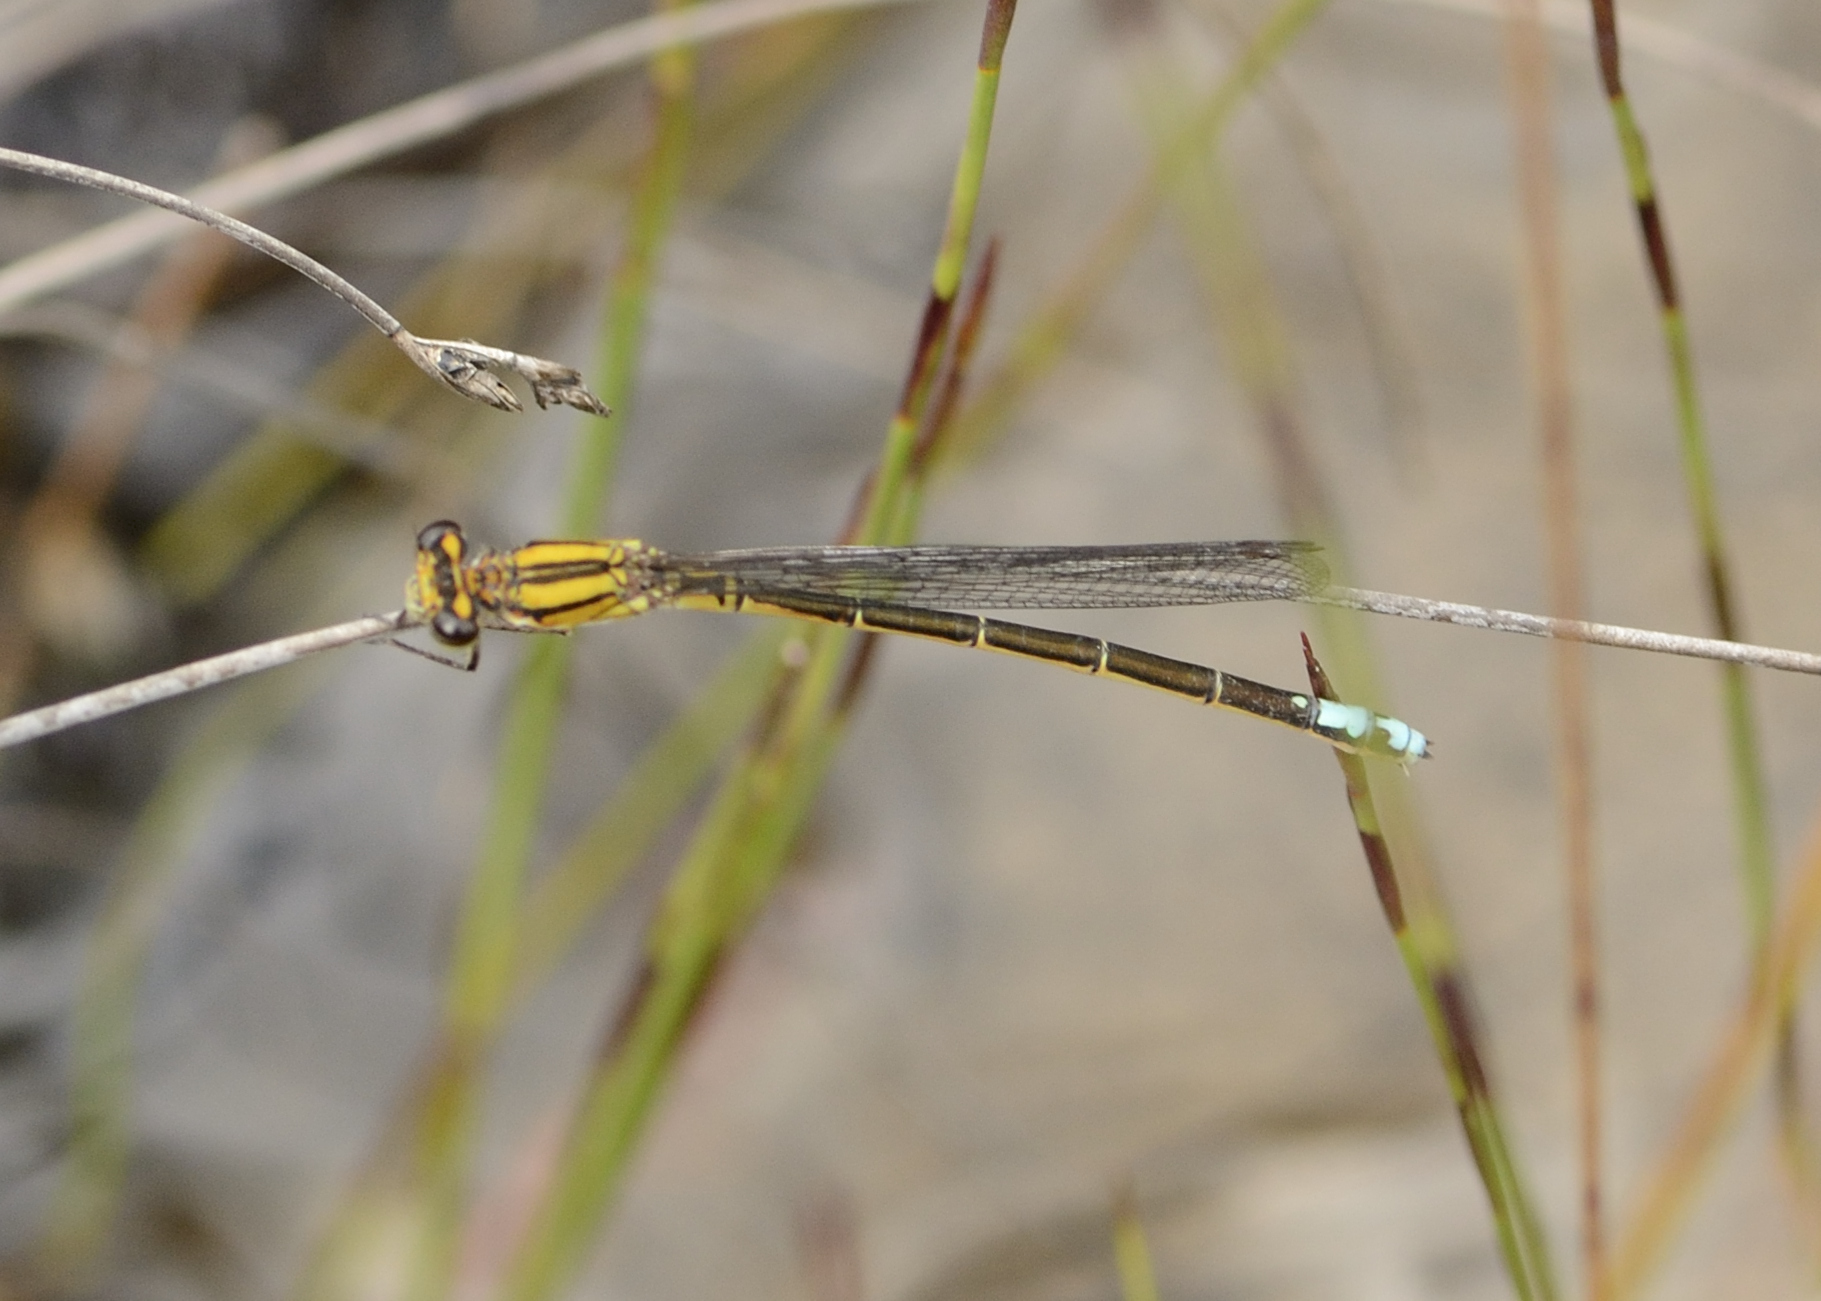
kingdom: Animalia
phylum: Arthropoda
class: Insecta
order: Odonata
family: Coenagrionidae
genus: Pseudagrion
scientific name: Pseudagrion furcigerum
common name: Palmiet sprite
